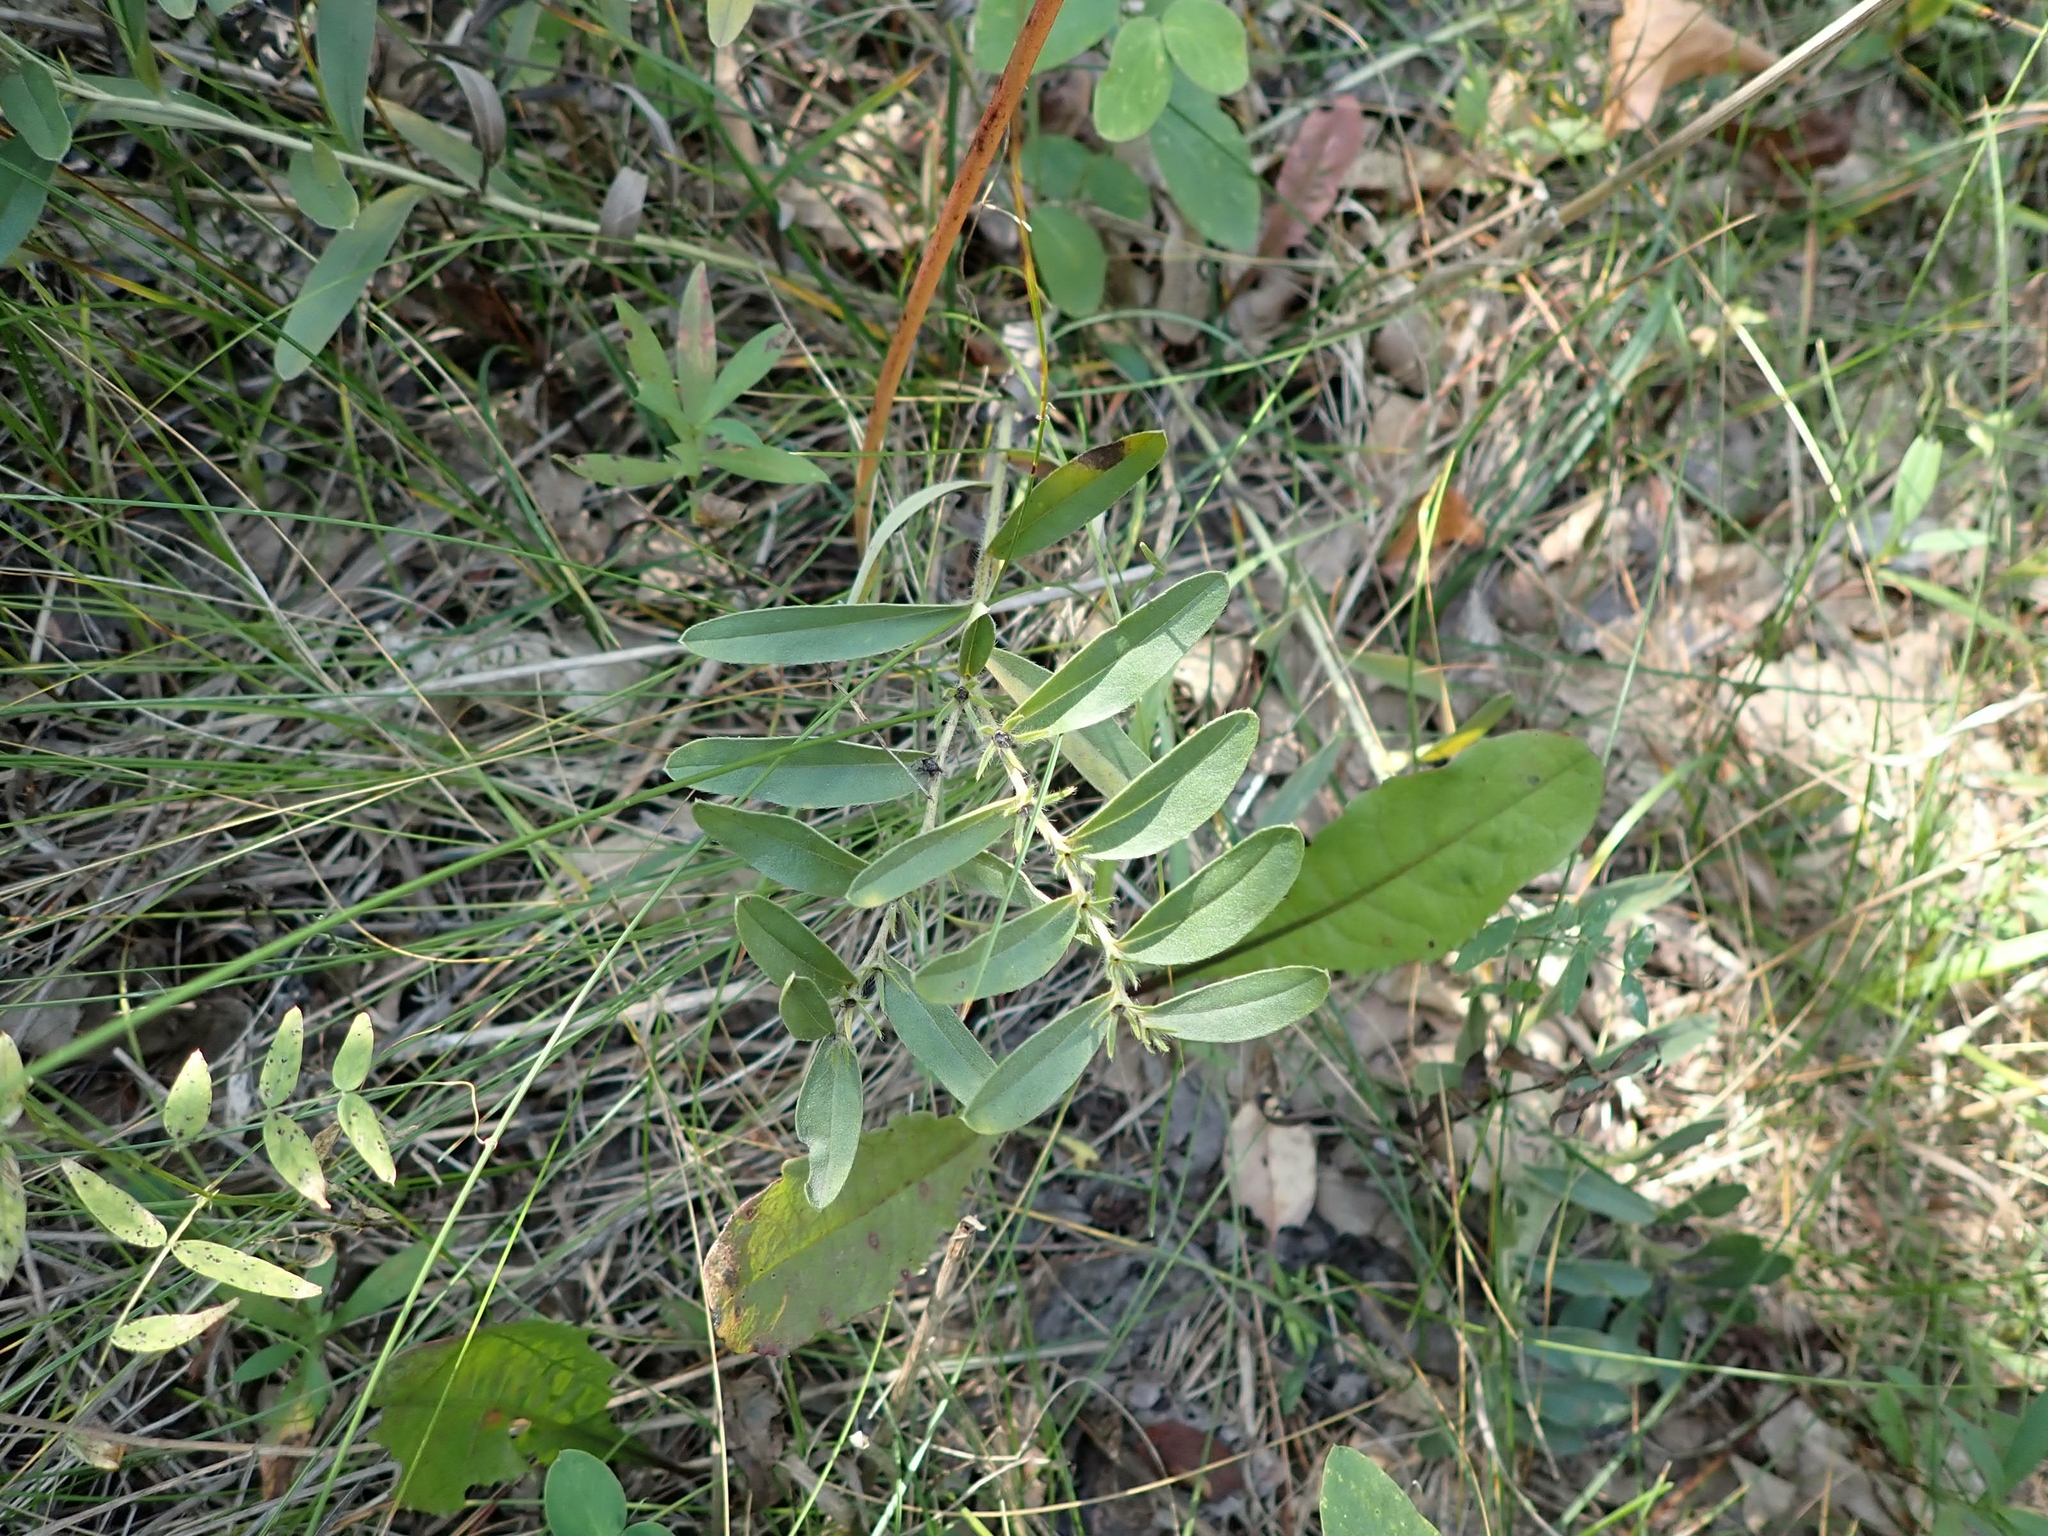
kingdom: Plantae
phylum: Tracheophyta
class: Magnoliopsida
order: Boraginales
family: Boraginaceae
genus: Lithospermum
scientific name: Lithospermum canescens
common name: Hoary puccoon
